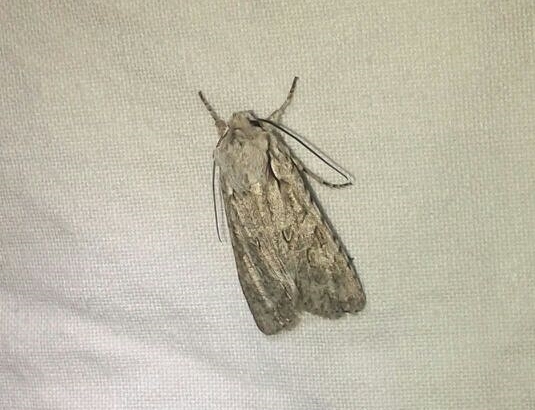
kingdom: Animalia
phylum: Arthropoda
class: Insecta
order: Lepidoptera
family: Noctuidae
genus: Lithophane
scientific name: Lithophane ornitopus
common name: Grey shoulder-knot
